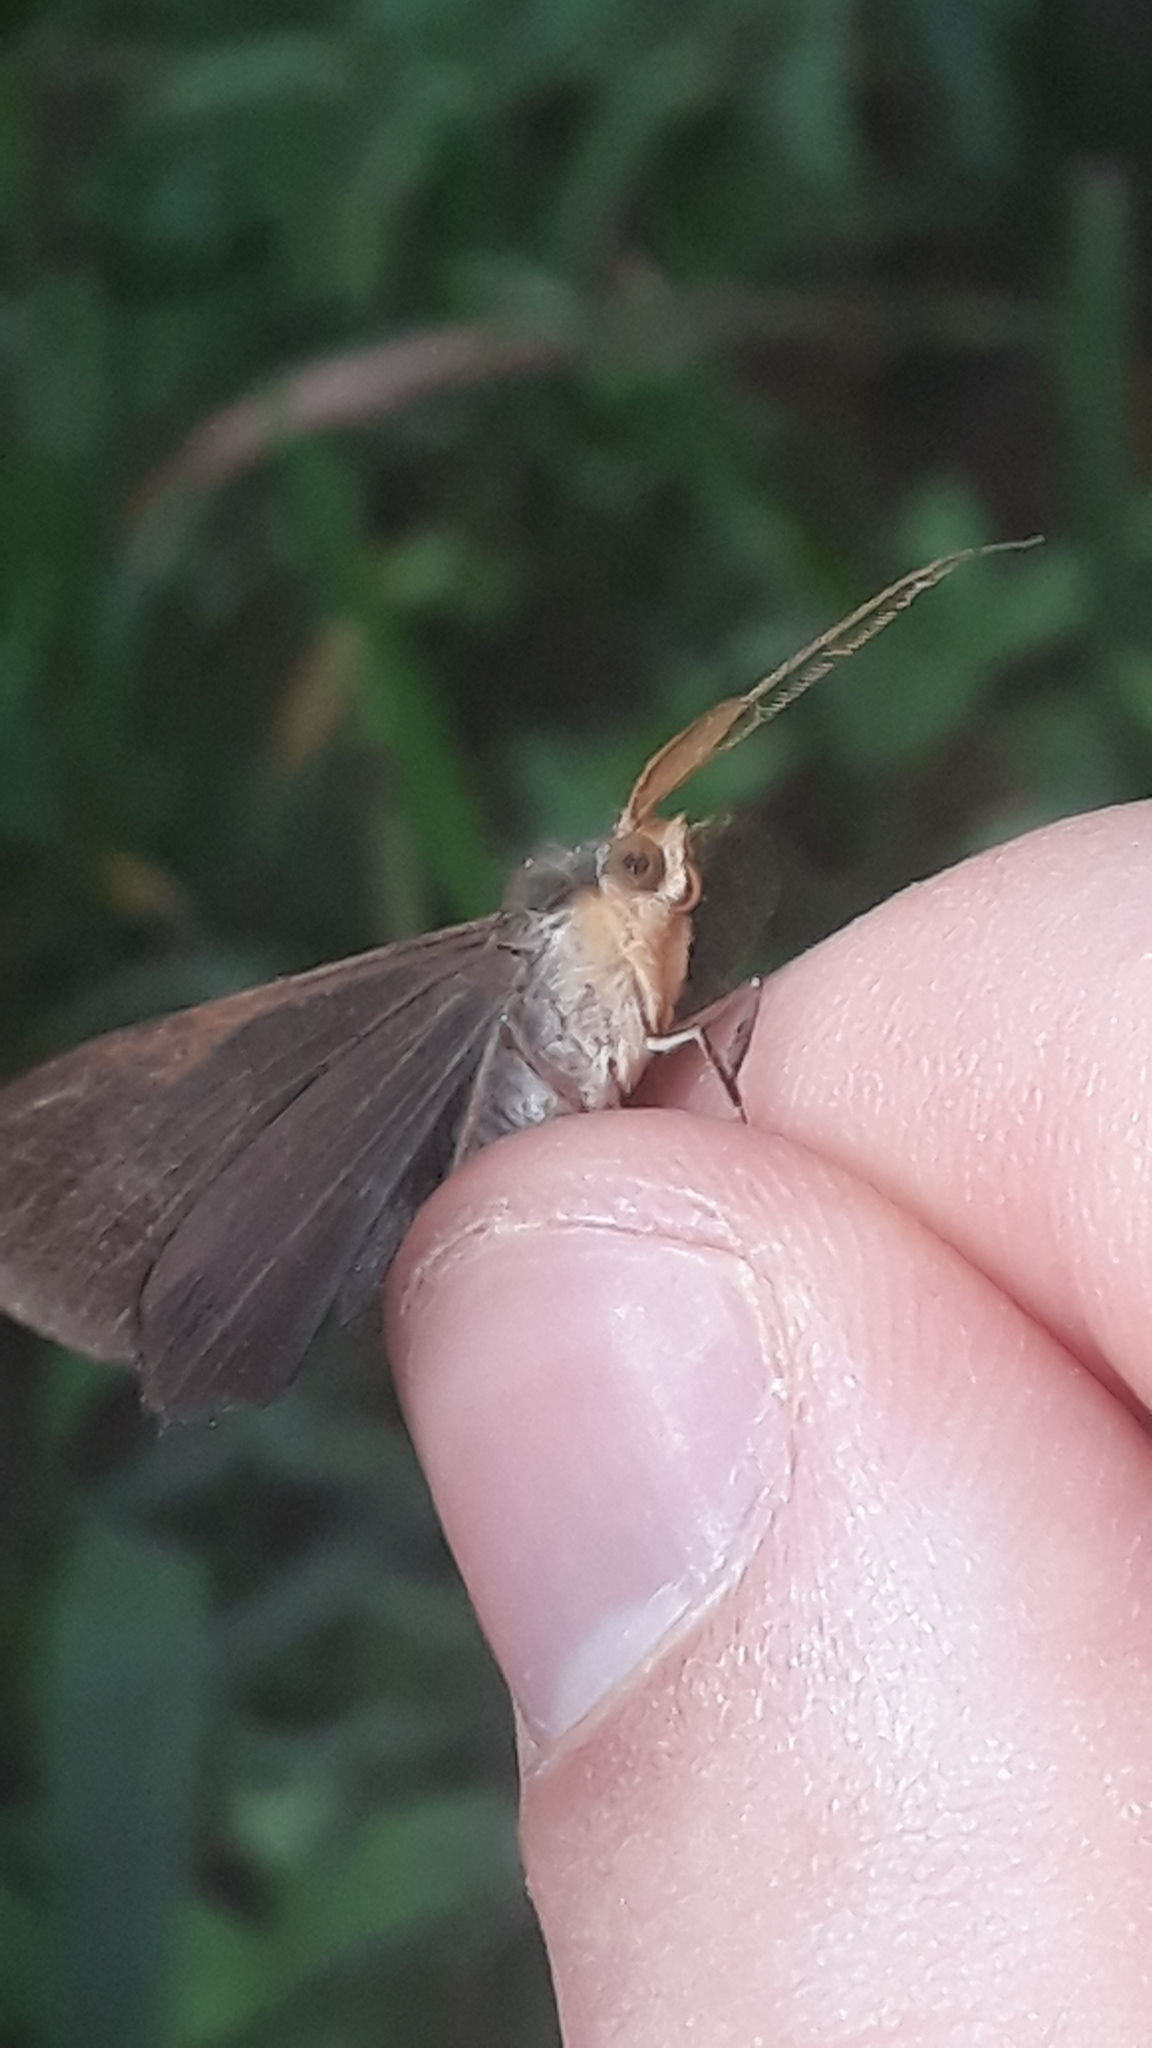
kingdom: Animalia
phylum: Arthropoda
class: Insecta
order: Lepidoptera
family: Geometridae
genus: Sphacelodes
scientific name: Sphacelodes vulneraria
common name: Looper moth
